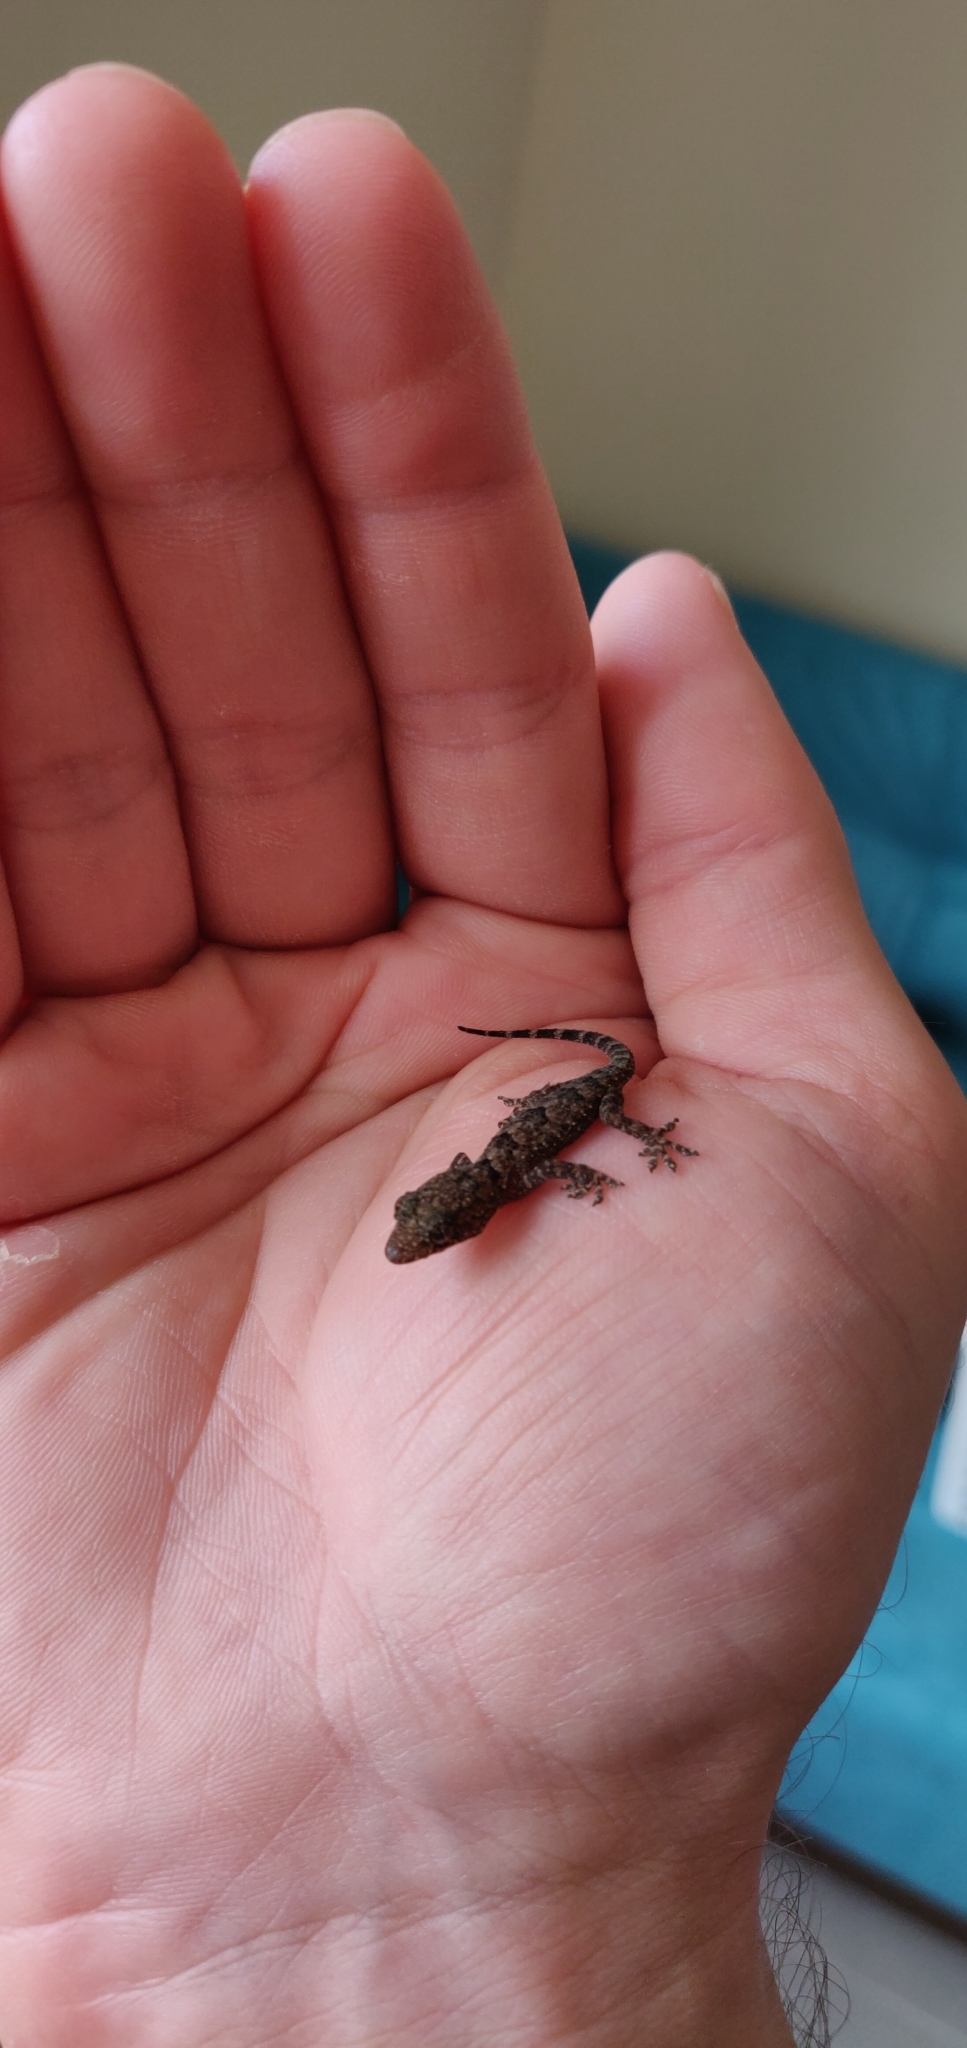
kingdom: Animalia
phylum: Chordata
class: Squamata
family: Gekkonidae
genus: Hemidactylus
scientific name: Hemidactylus mabouia
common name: House gecko
